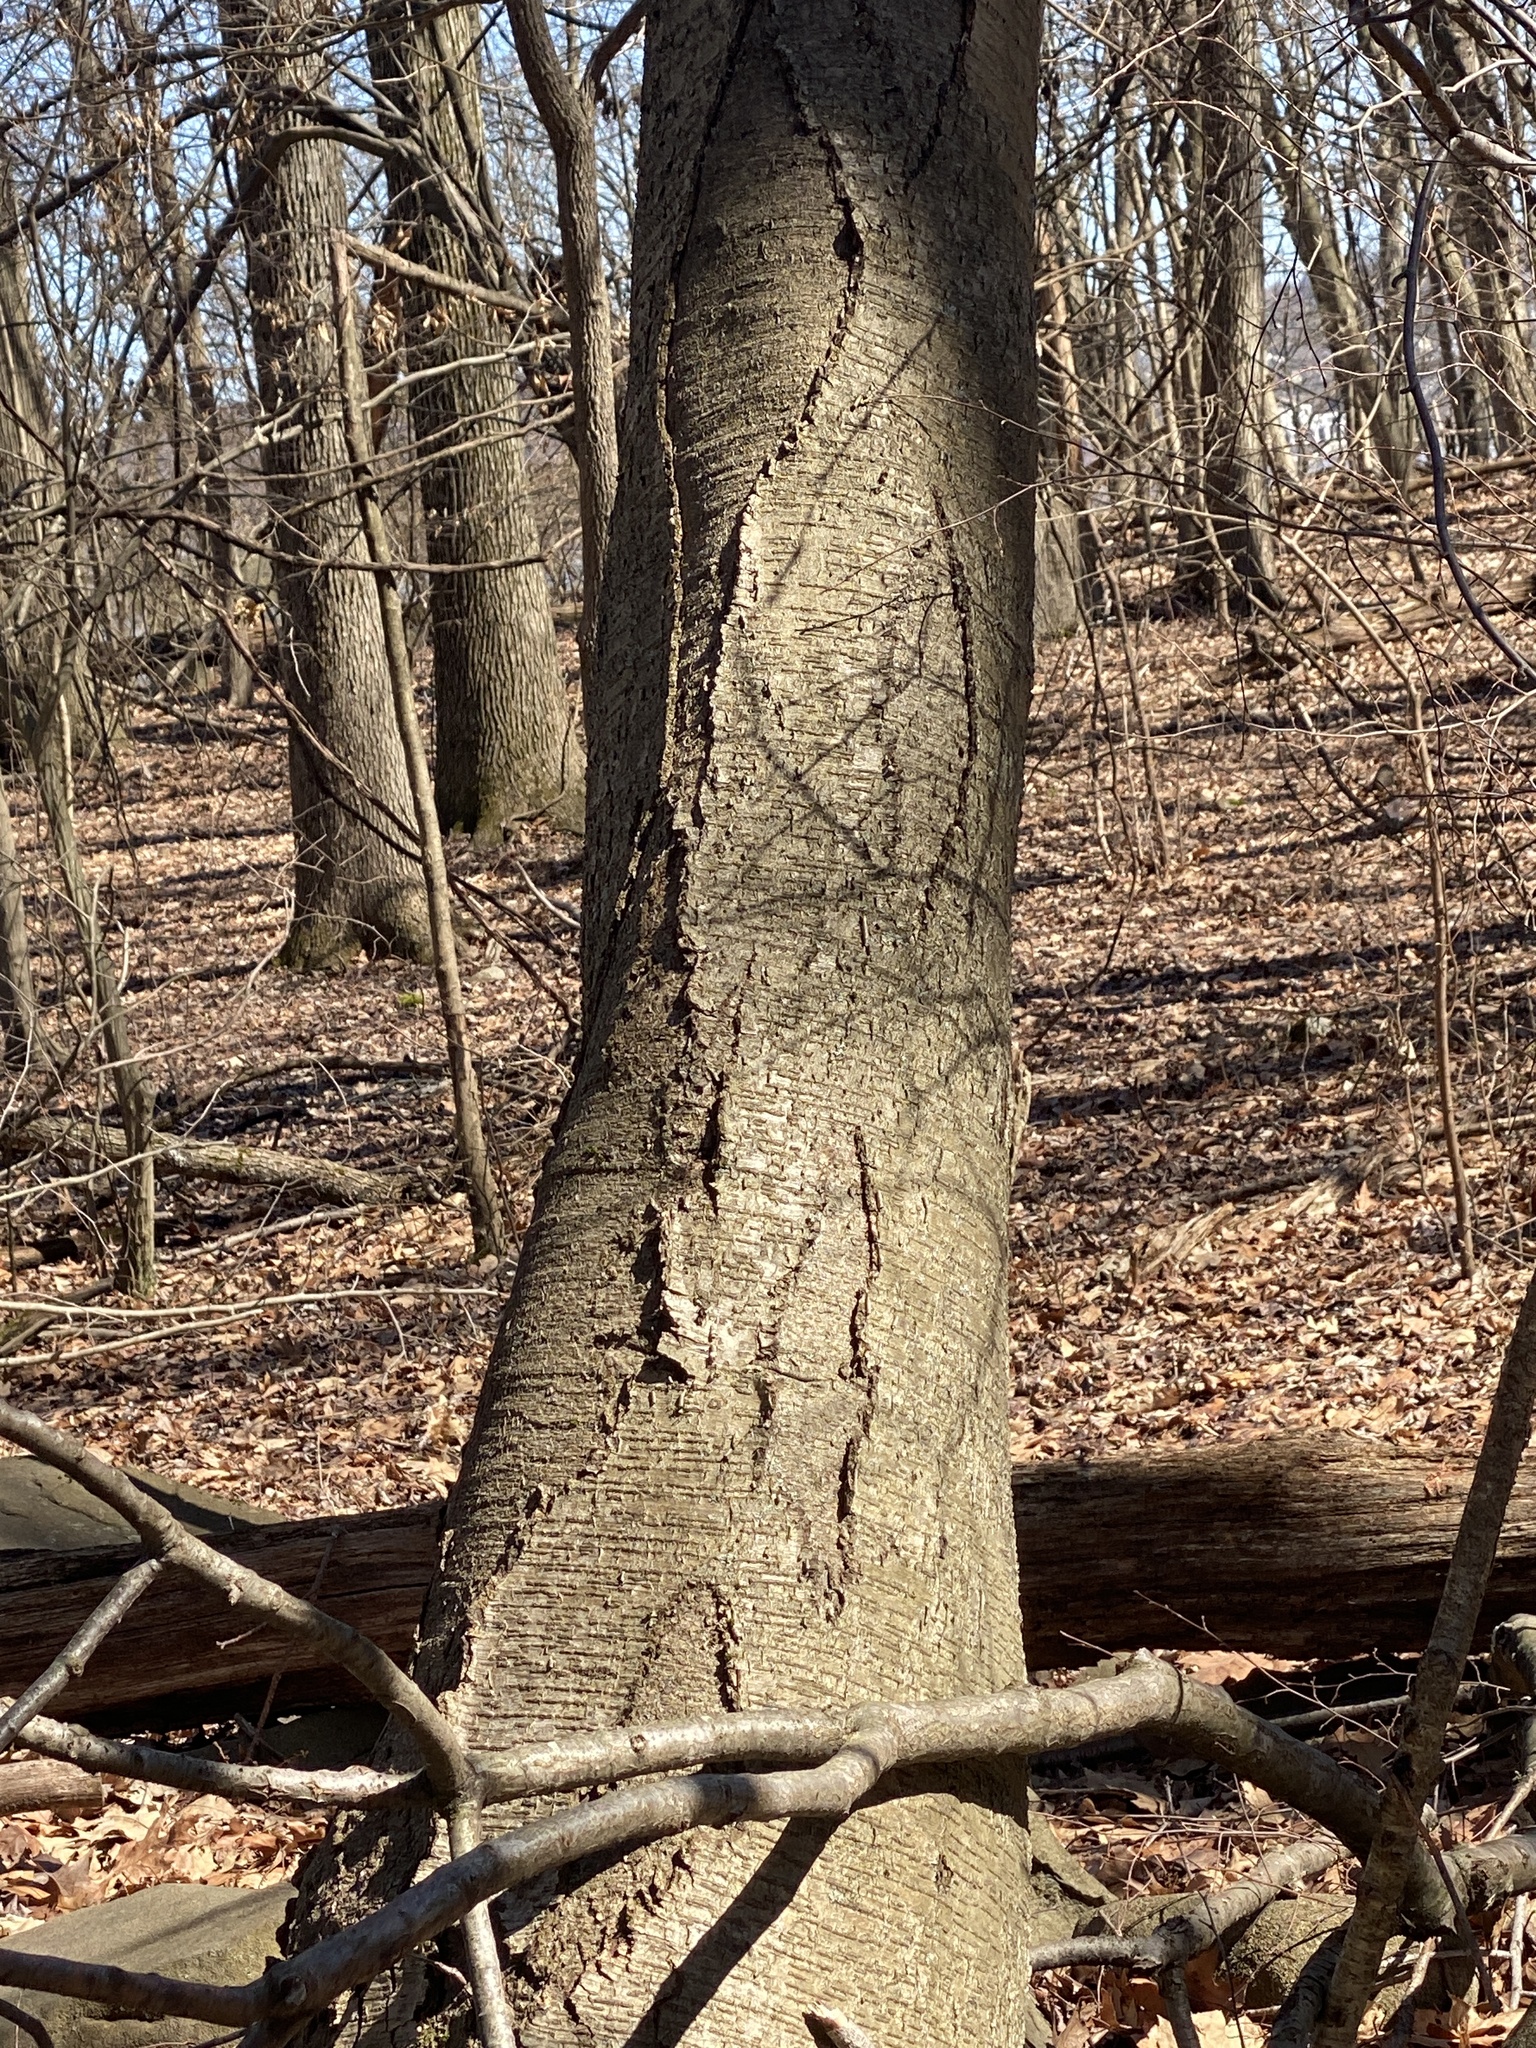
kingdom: Plantae
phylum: Tracheophyta
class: Magnoliopsida
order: Fagales
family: Betulaceae
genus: Betula
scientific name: Betula lenta
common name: Black birch
